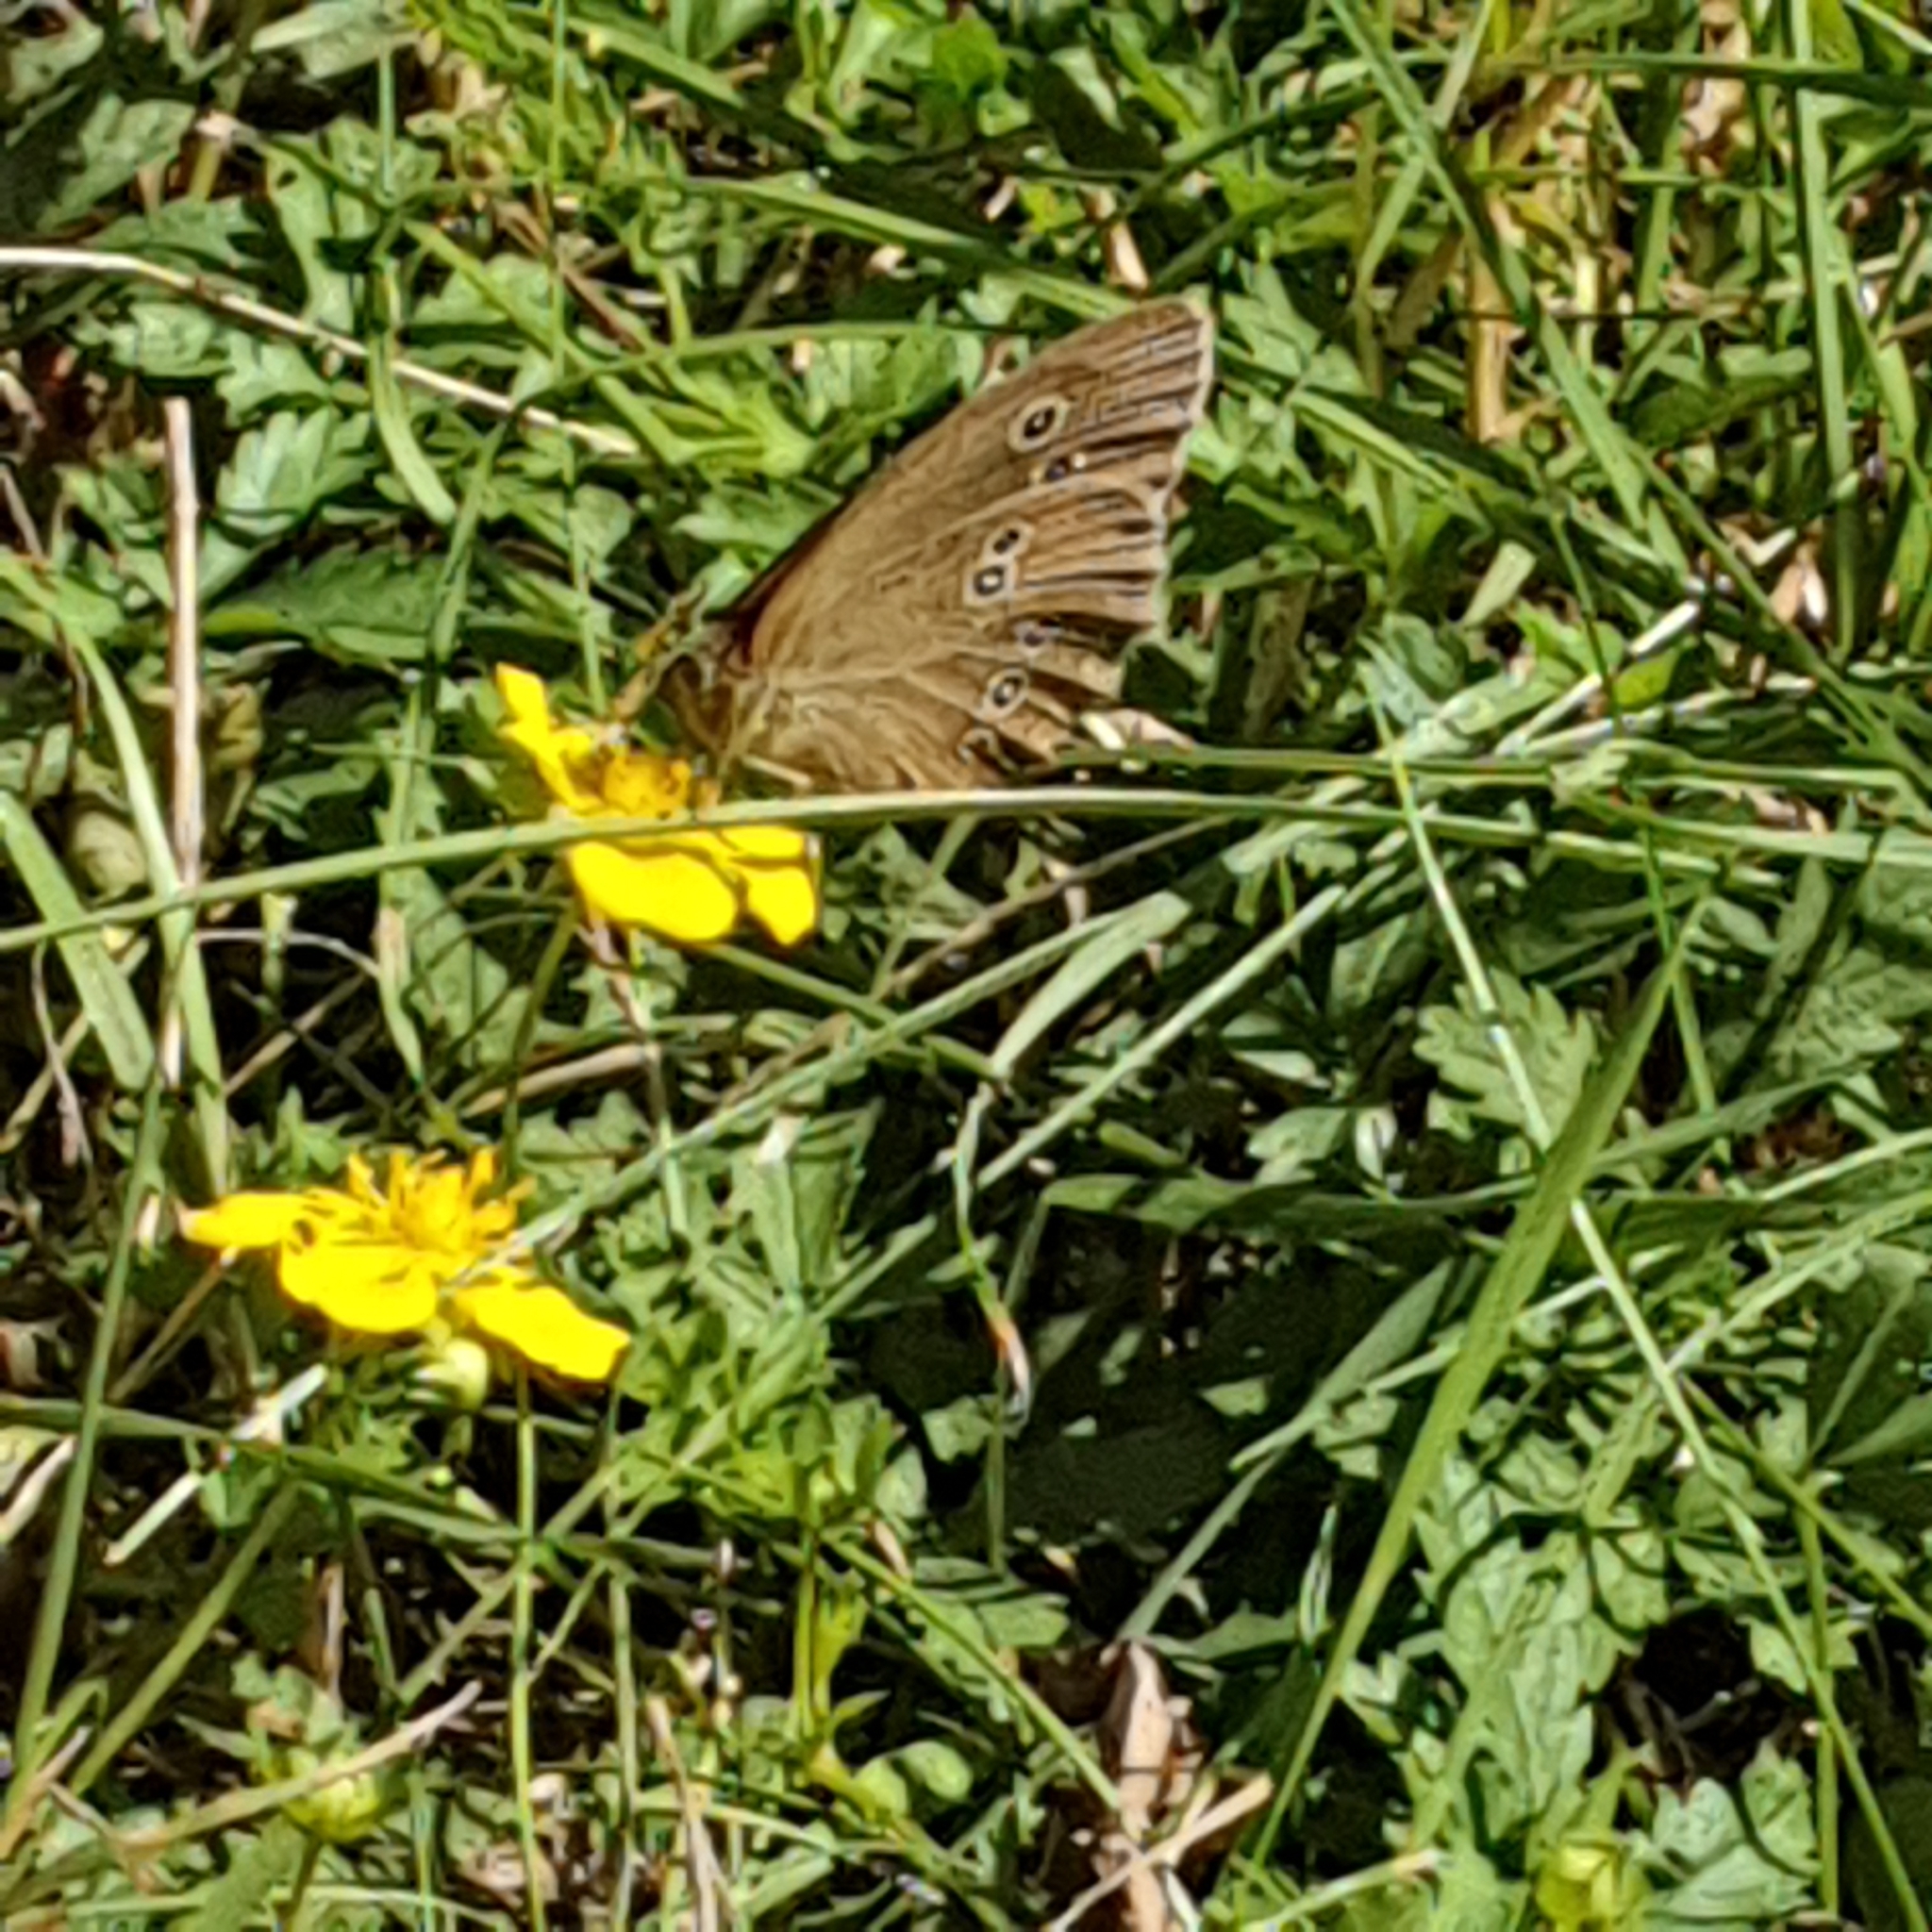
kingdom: Animalia
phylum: Arthropoda
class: Insecta
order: Lepidoptera
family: Nymphalidae
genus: Aphantopus
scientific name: Aphantopus hyperantus
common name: Ringlet
